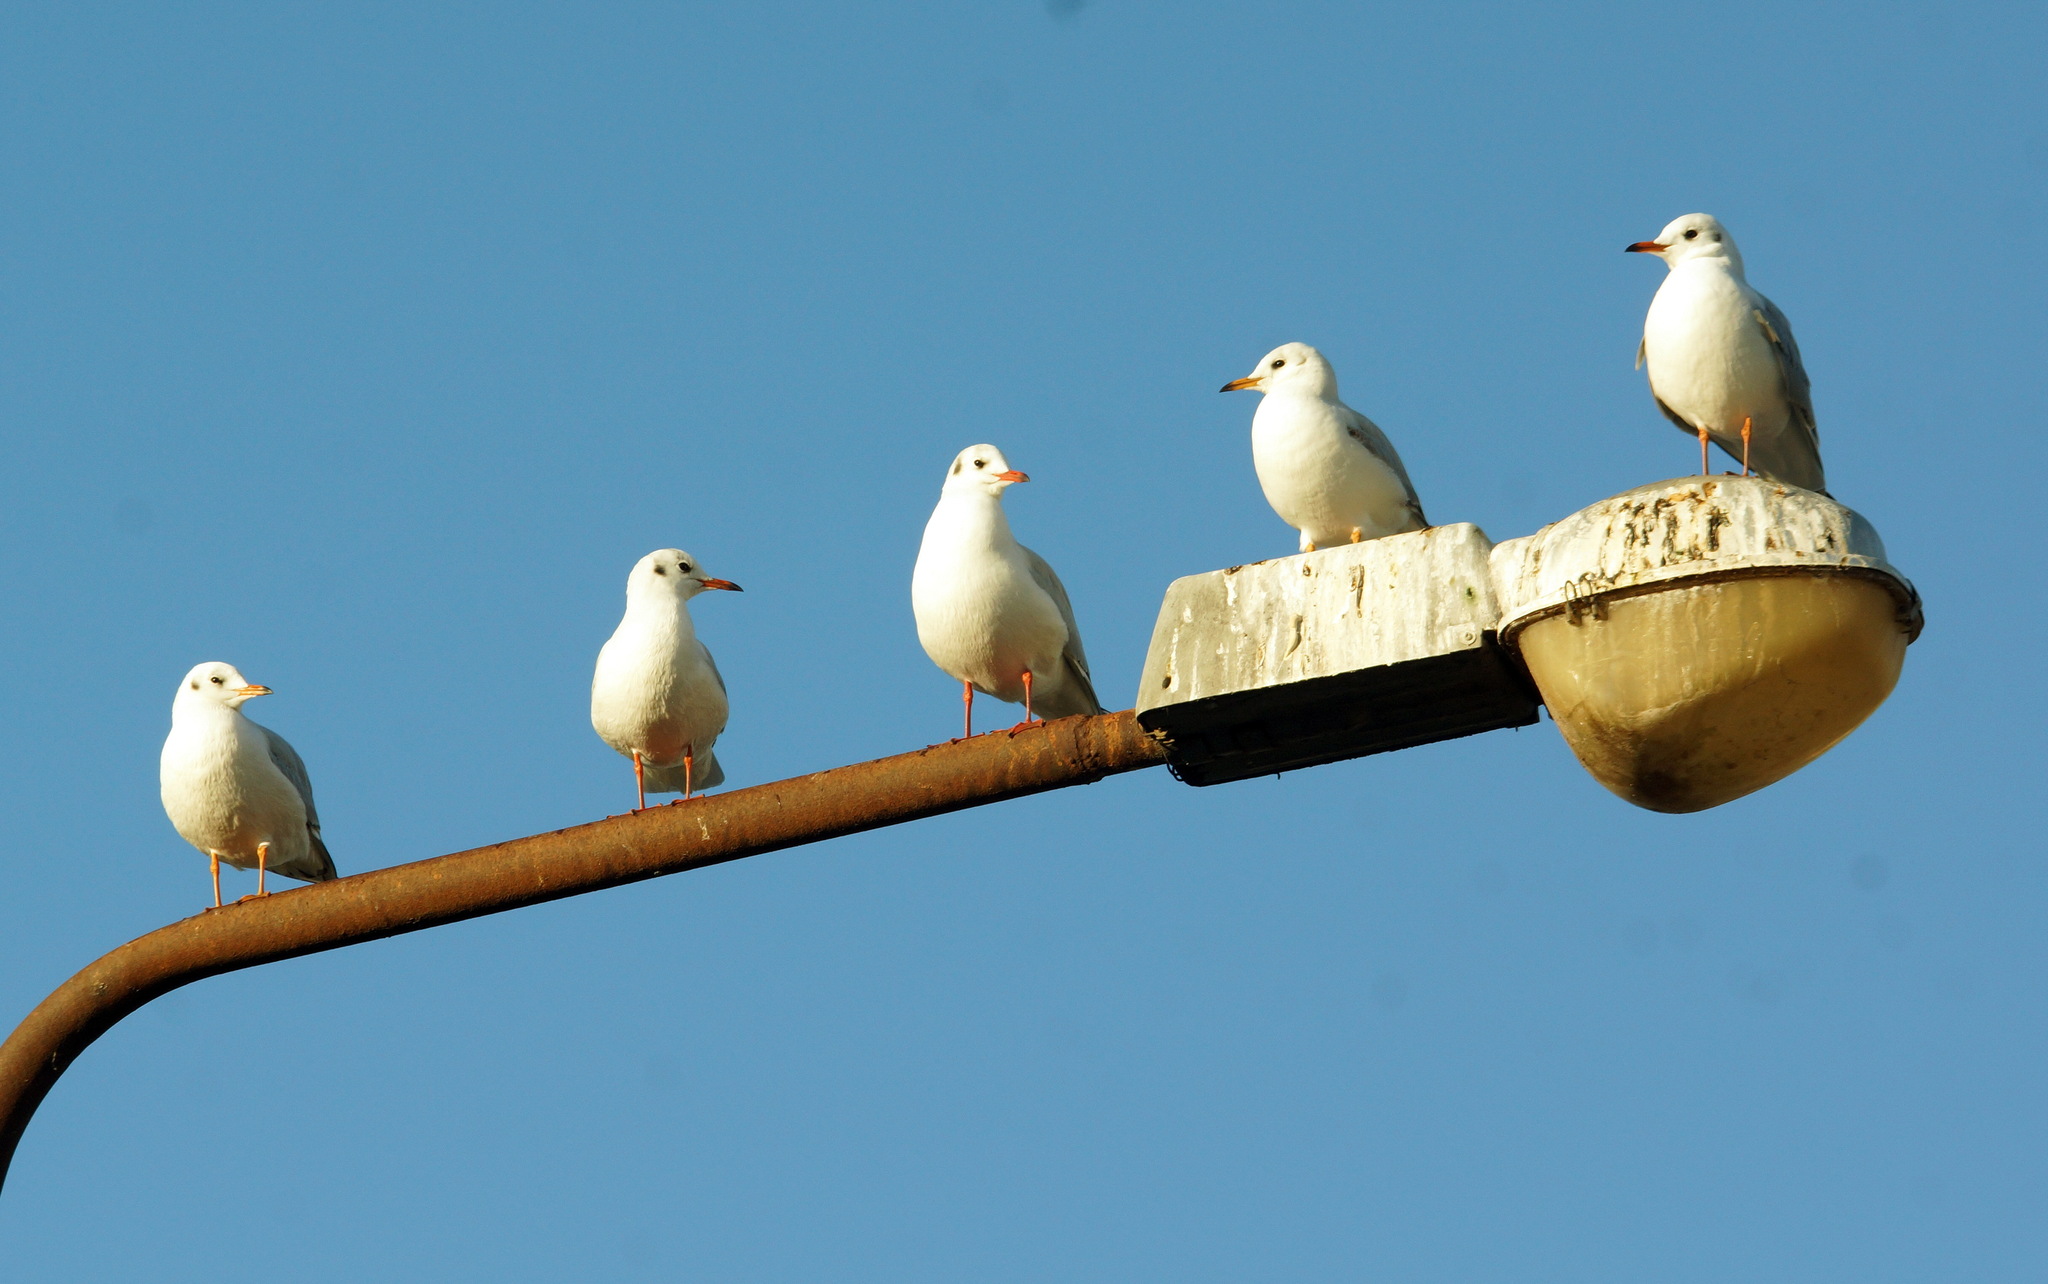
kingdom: Animalia
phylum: Chordata
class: Aves
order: Charadriiformes
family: Laridae
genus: Chroicocephalus
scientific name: Chroicocephalus ridibundus
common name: Black-headed gull
